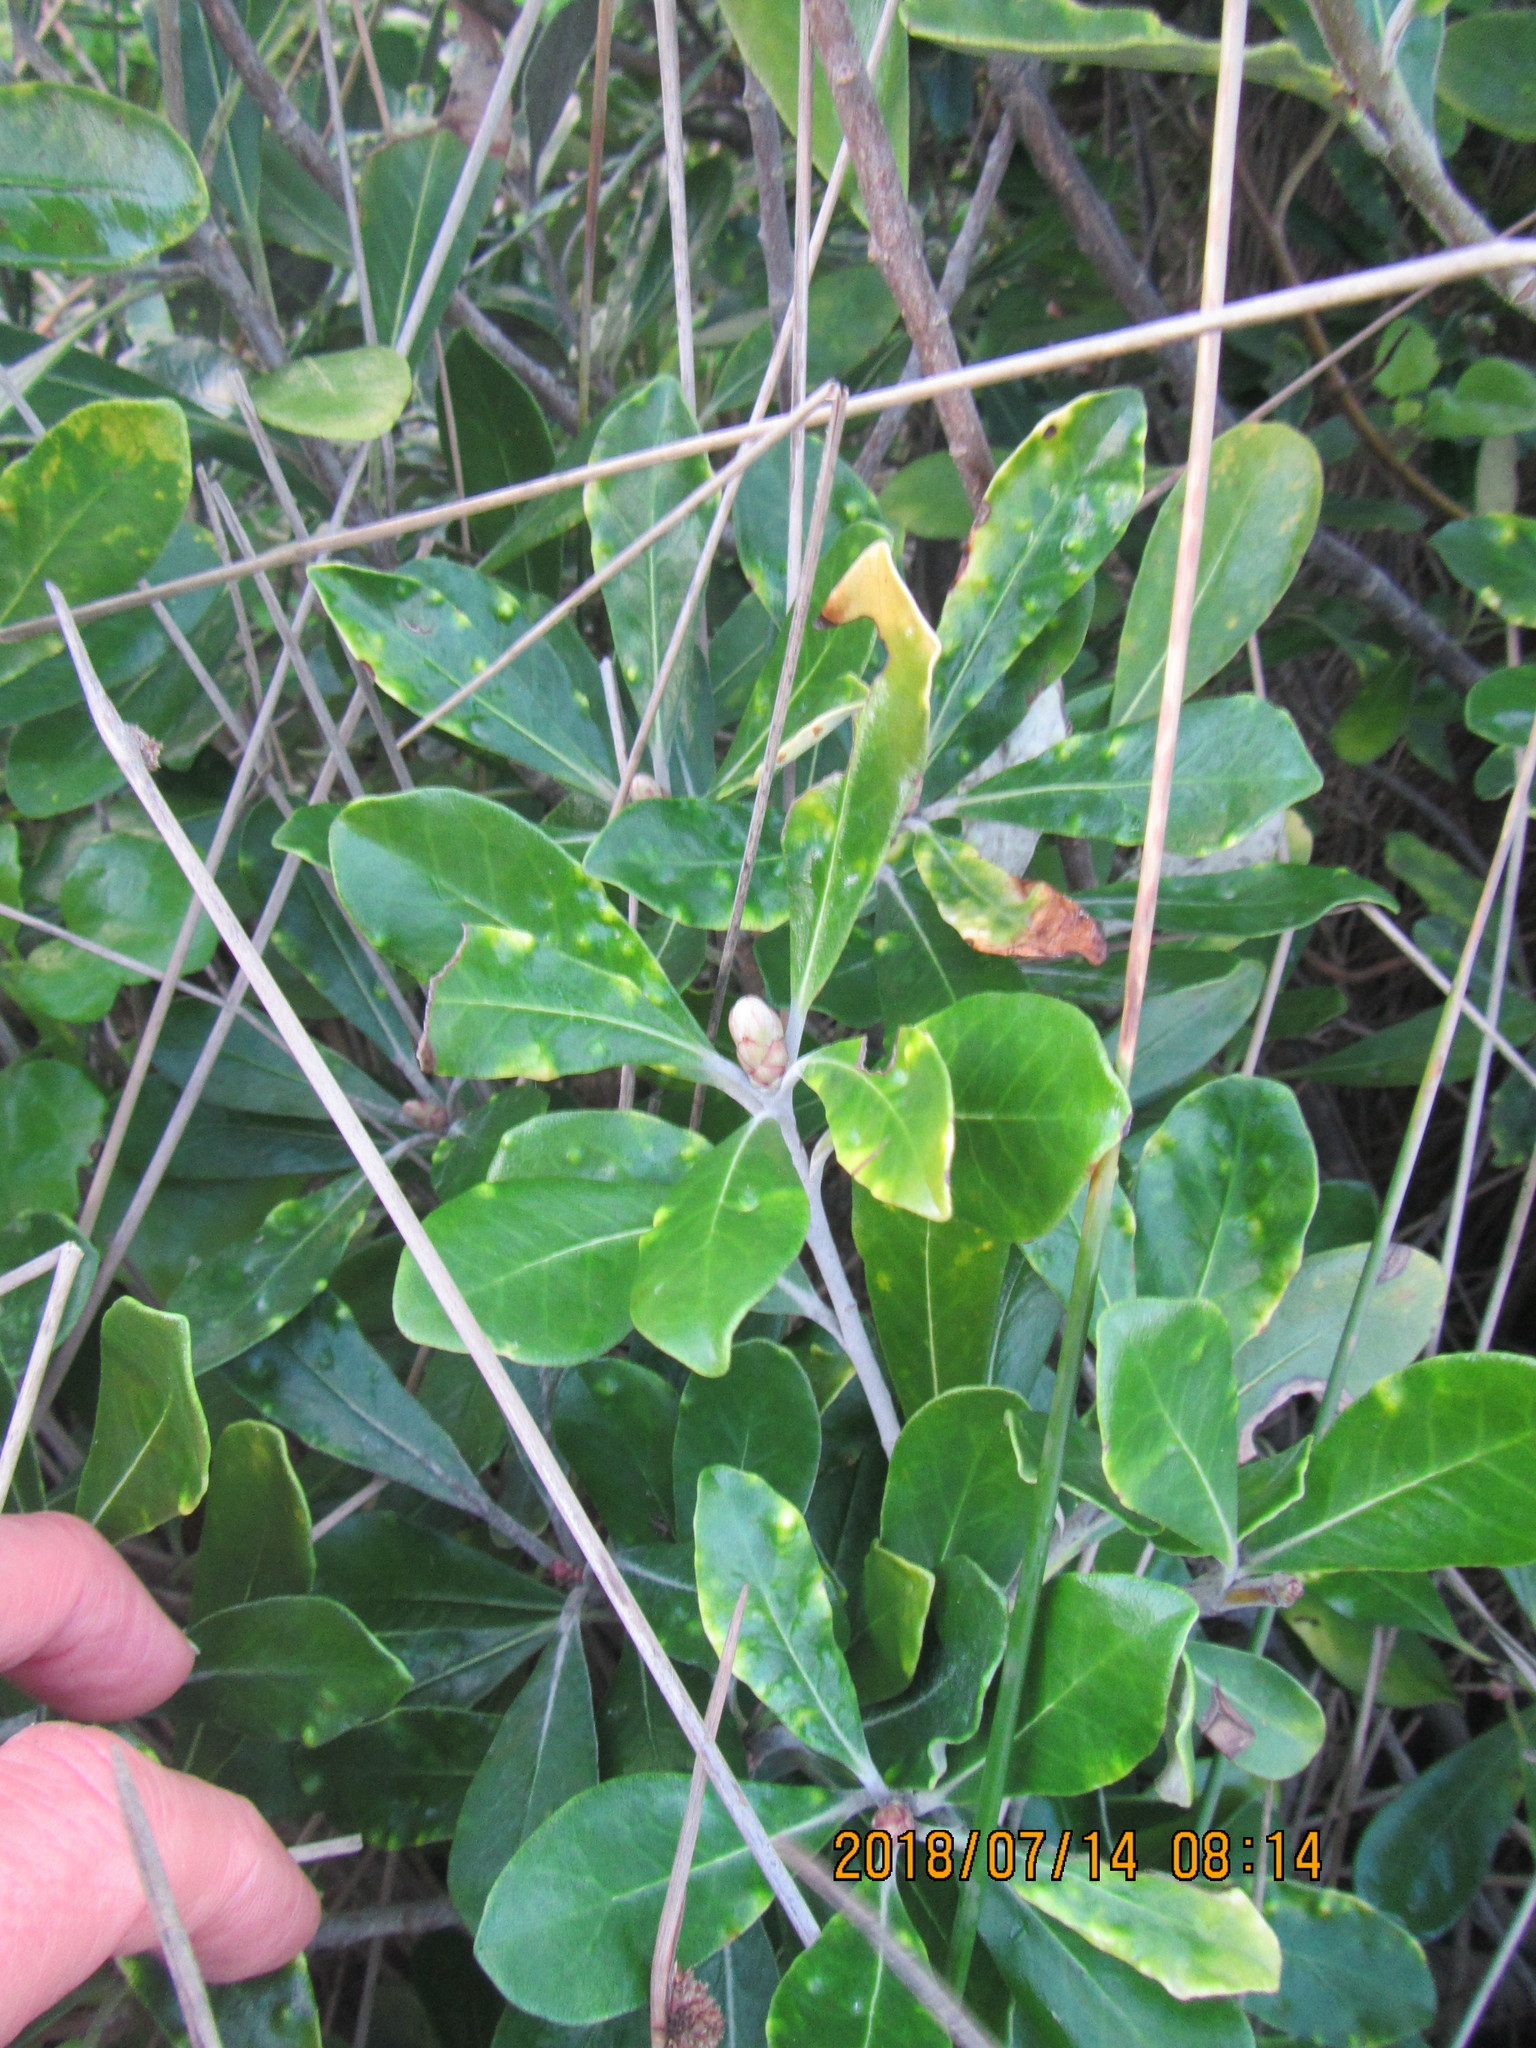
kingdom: Plantae
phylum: Tracheophyta
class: Magnoliopsida
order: Apiales
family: Pittosporaceae
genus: Pittosporum
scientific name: Pittosporum crassifolium
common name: Karo
